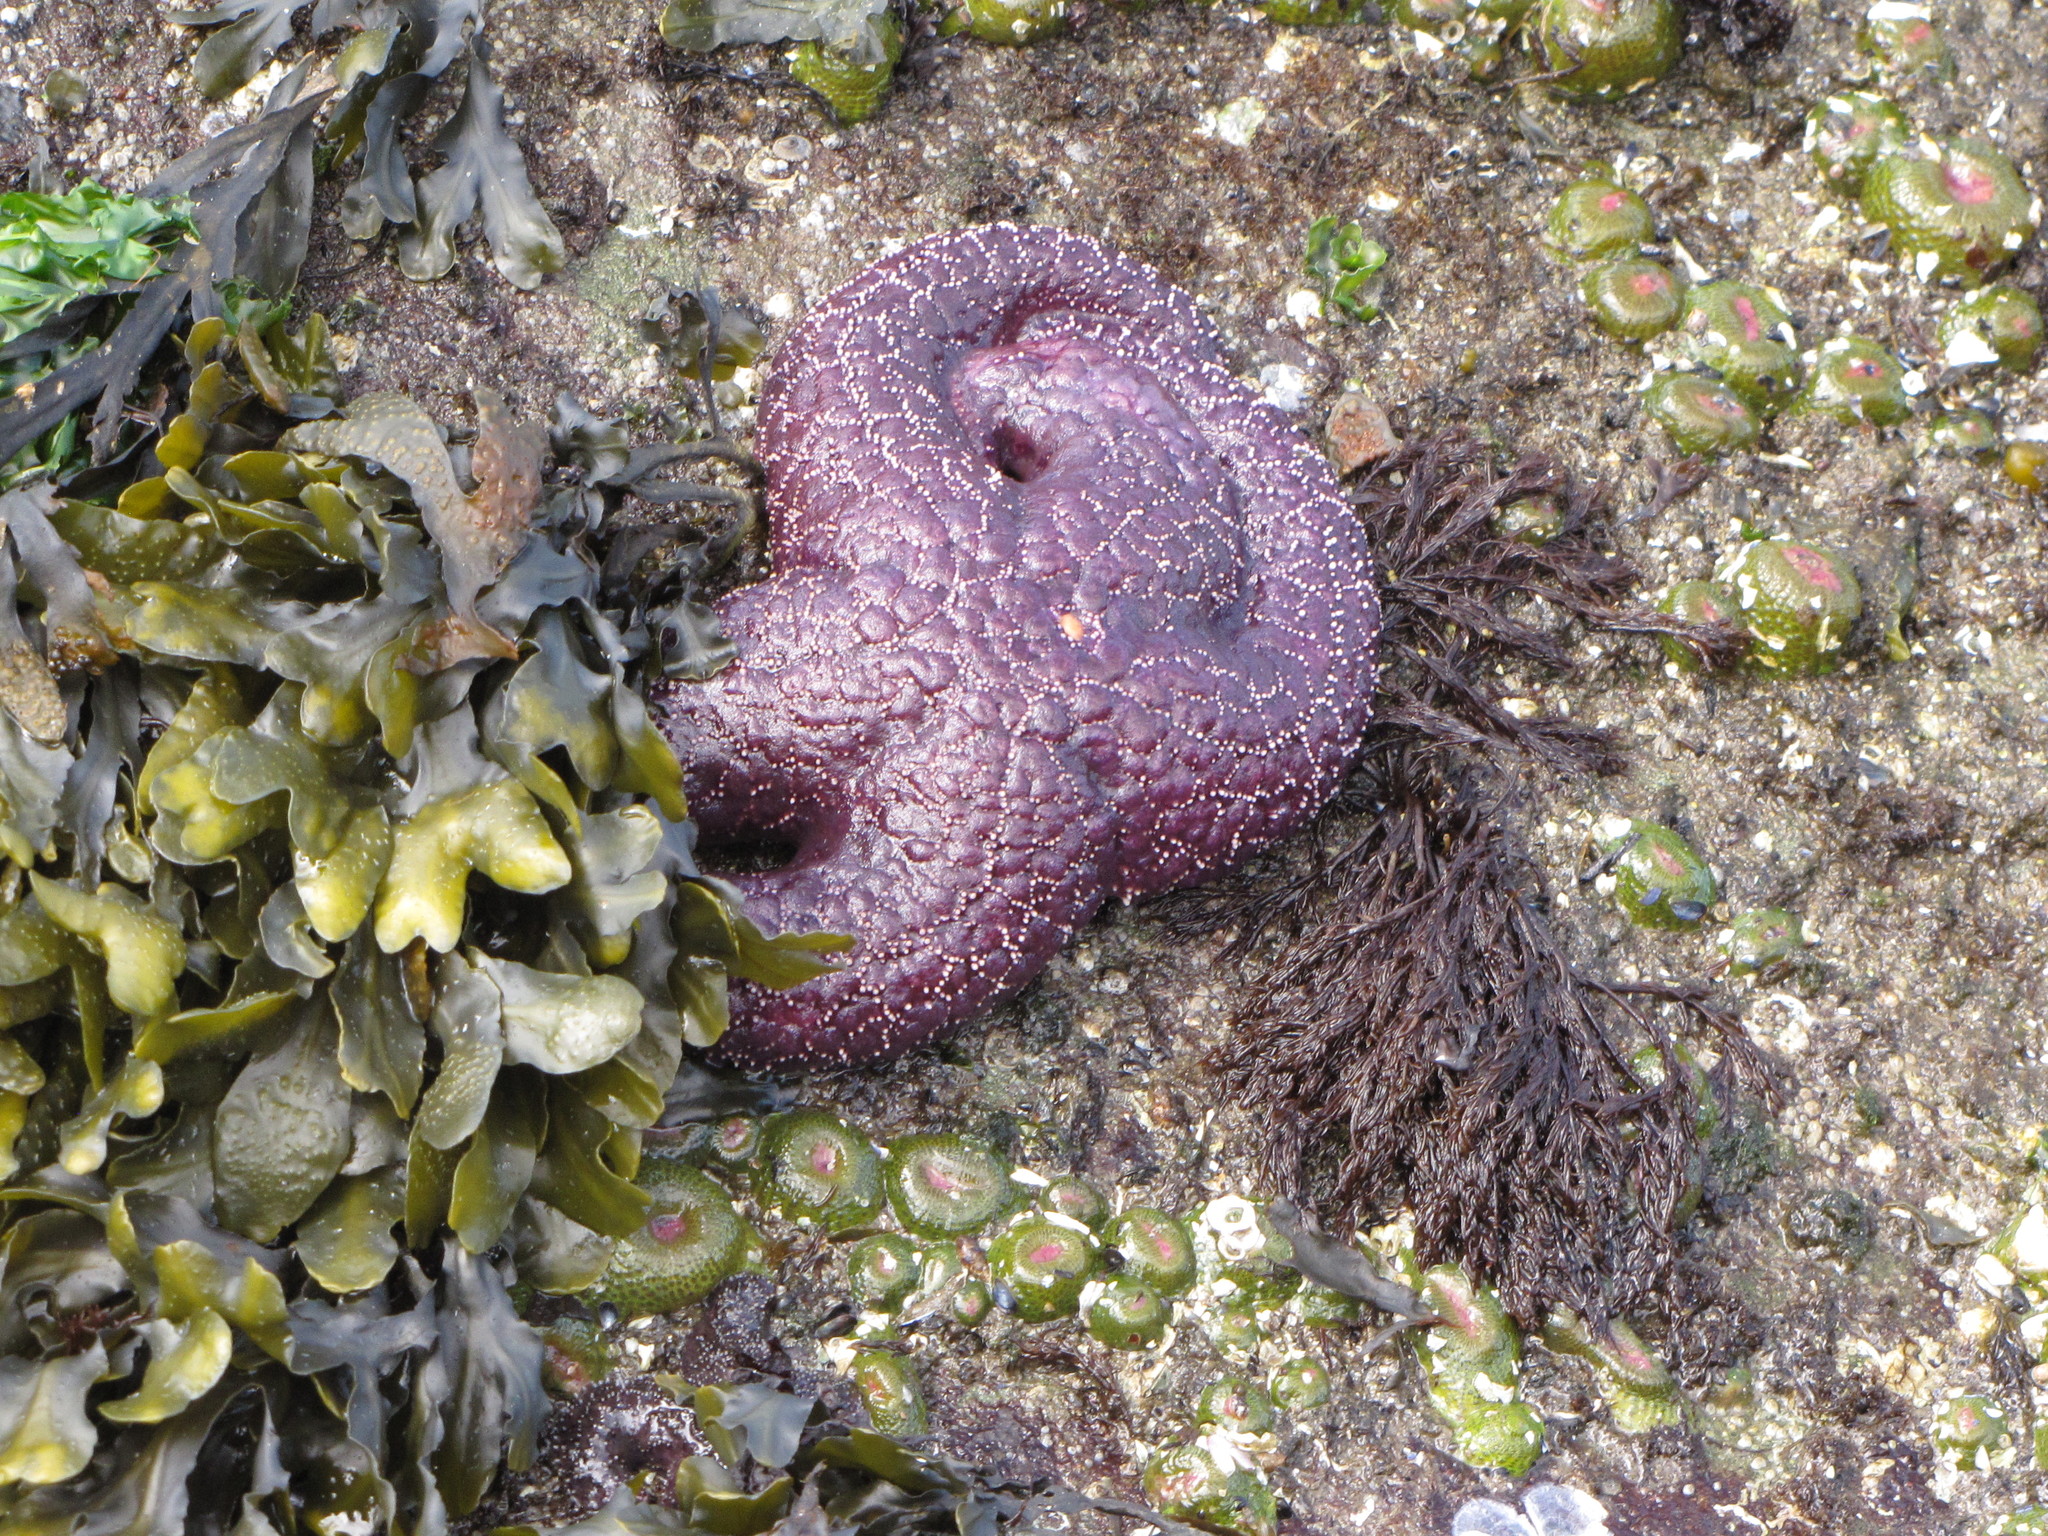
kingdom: Animalia
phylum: Echinodermata
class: Asteroidea
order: Forcipulatida
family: Asteriidae
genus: Pisaster
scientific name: Pisaster ochraceus
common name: Ochre stars
